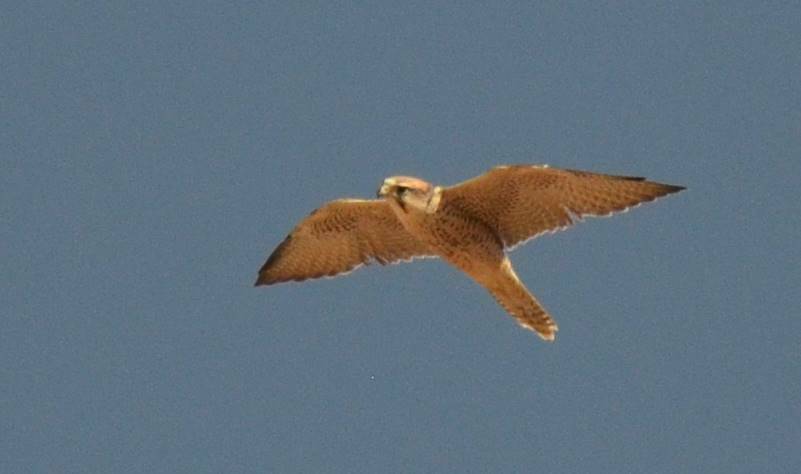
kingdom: Animalia
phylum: Chordata
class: Aves
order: Falconiformes
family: Falconidae
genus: Falco
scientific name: Falco biarmicus
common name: Lanner falcon
